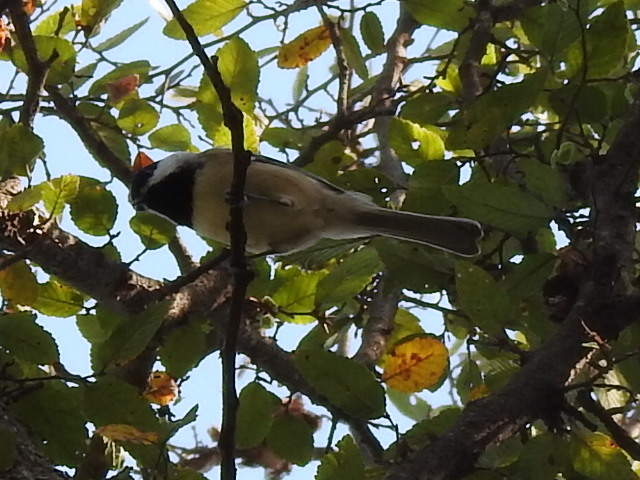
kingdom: Animalia
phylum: Chordata
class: Aves
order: Passeriformes
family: Paridae
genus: Poecile
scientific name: Poecile carolinensis
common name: Carolina chickadee
